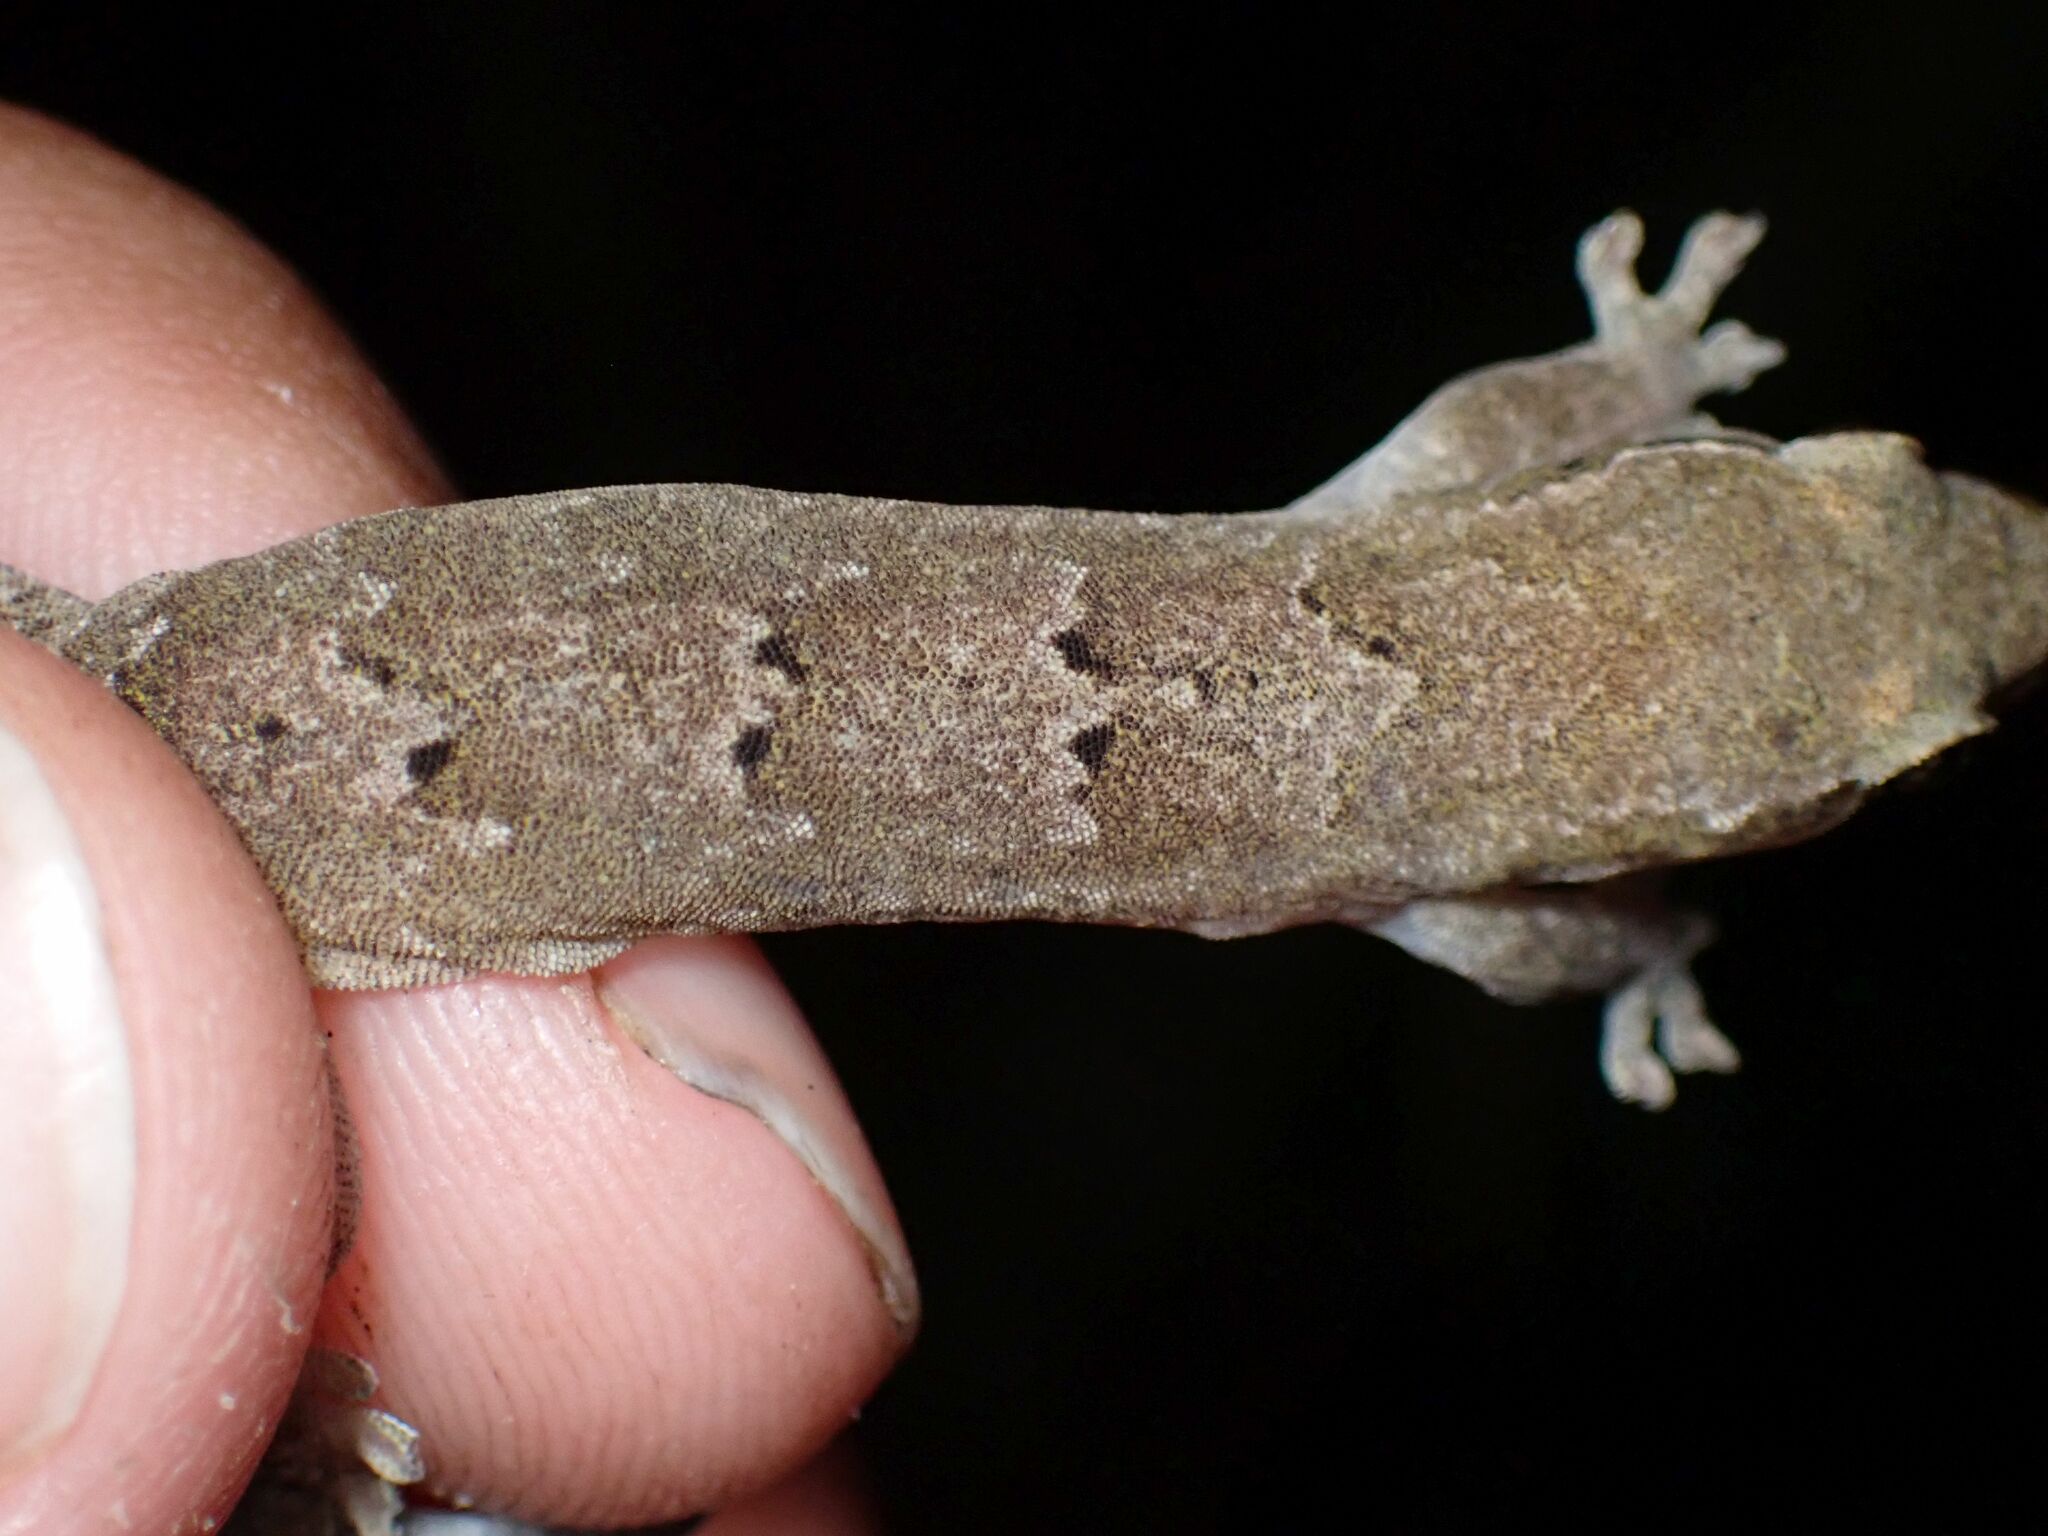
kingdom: Animalia
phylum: Chordata
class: Squamata
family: Gekkonidae
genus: Lepidodactylus
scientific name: Lepidodactylus lugubris
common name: Mourning gecko
